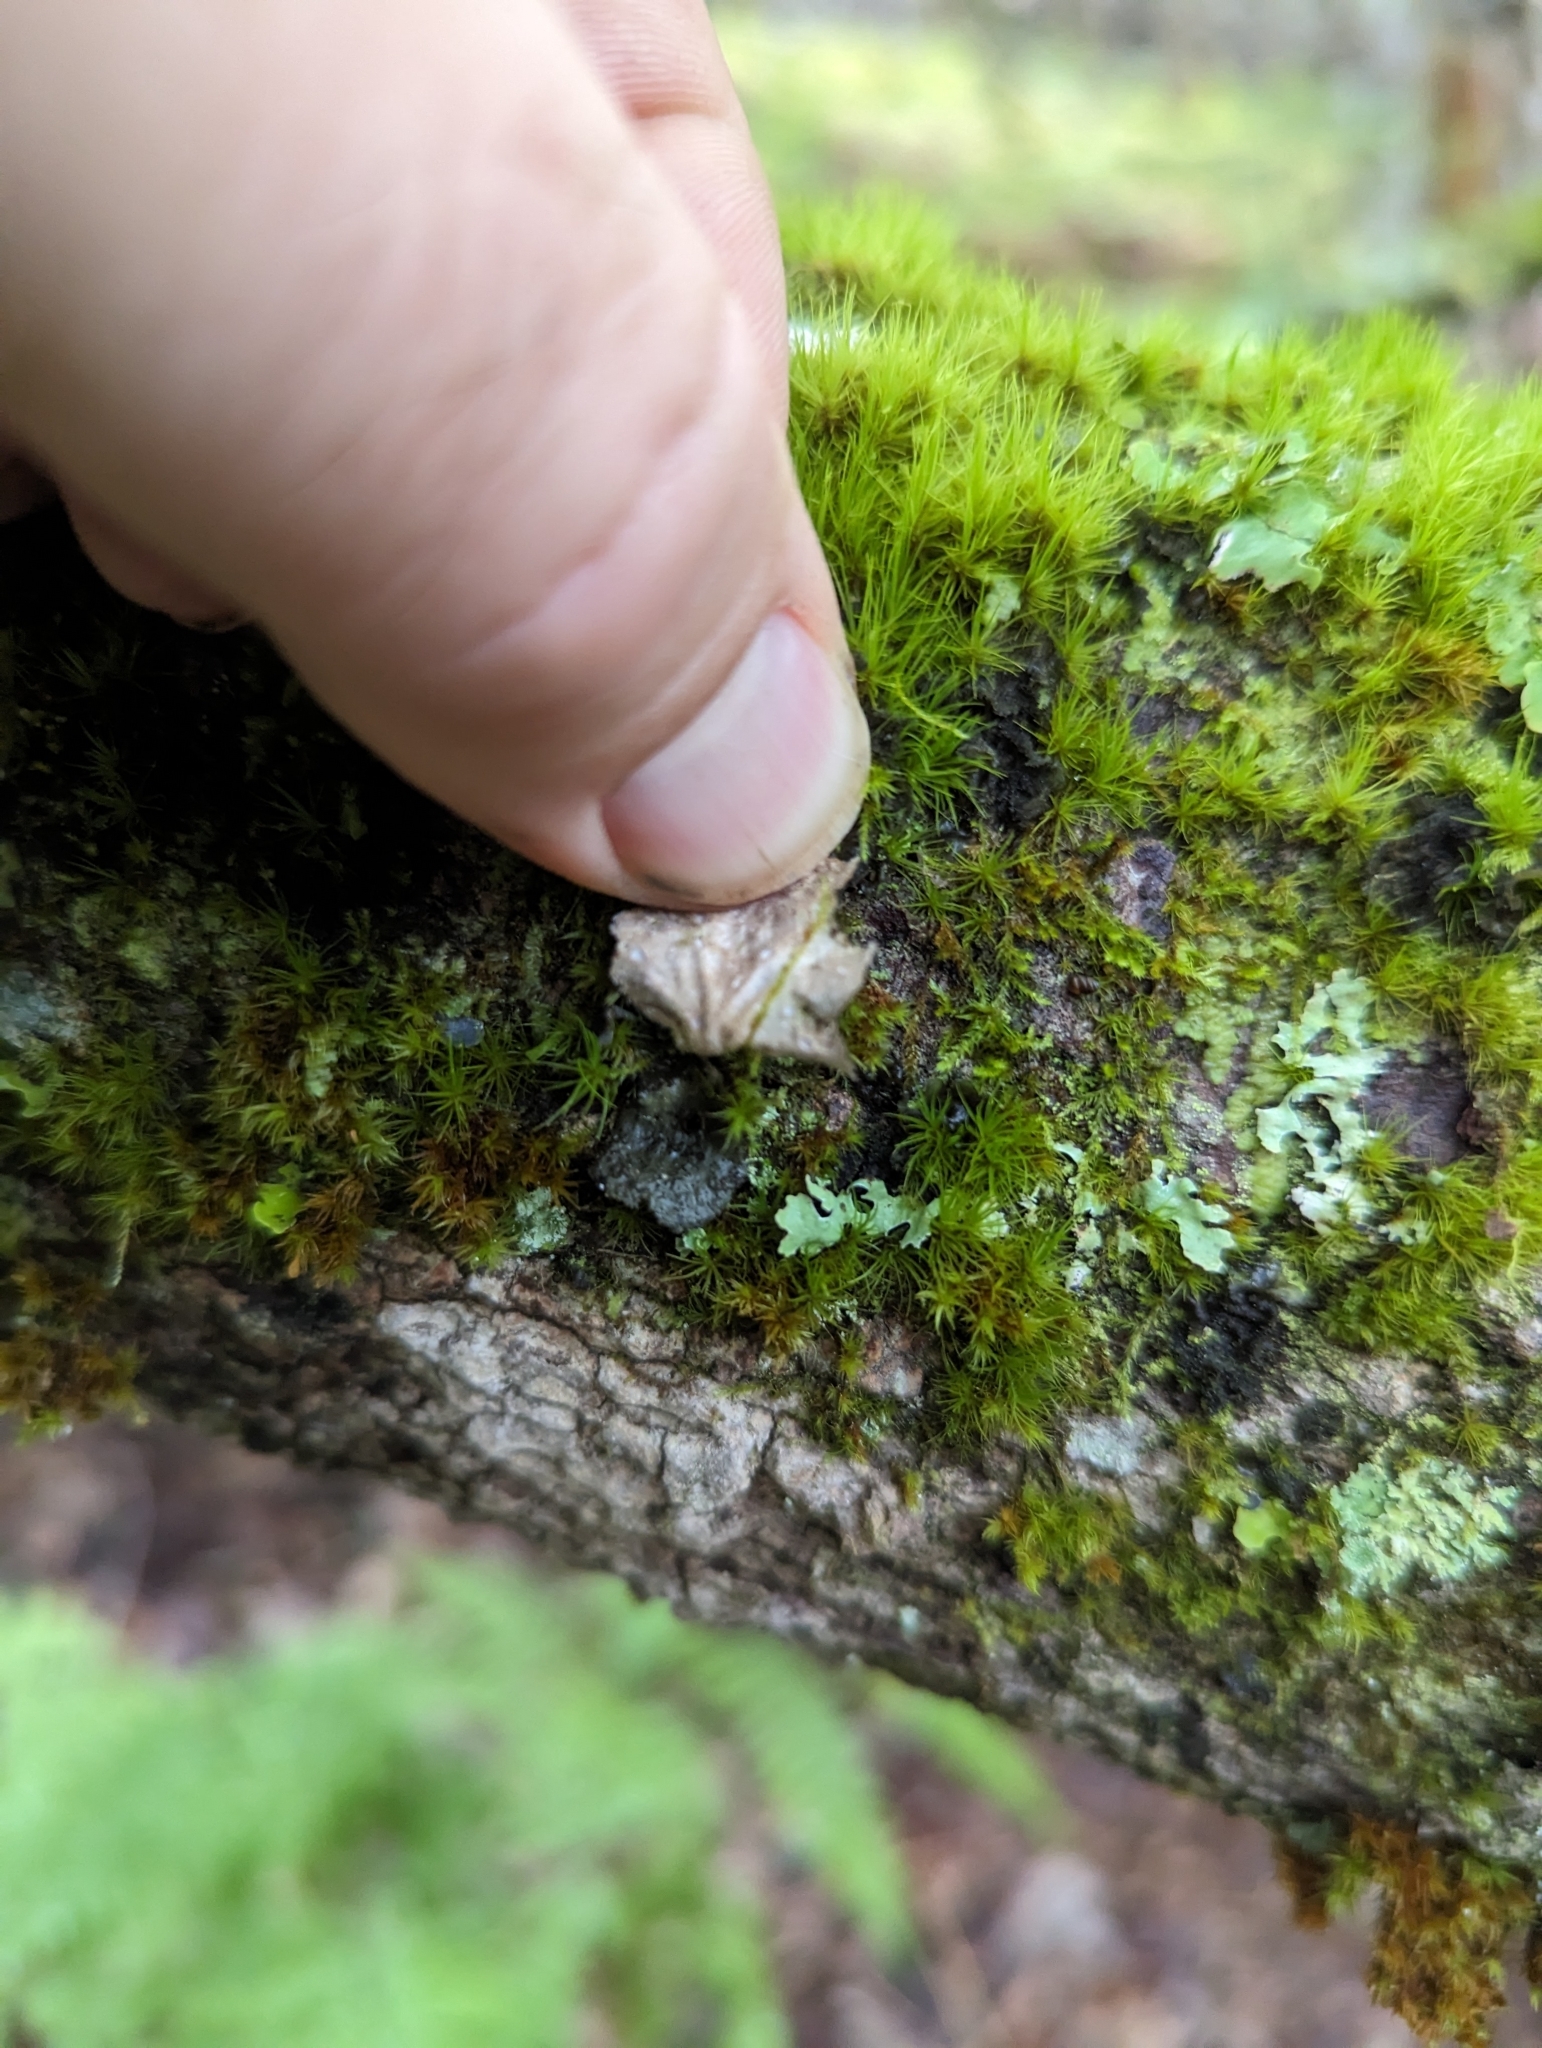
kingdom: Fungi
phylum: Ascomycota
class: Lecanoromycetes
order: Peltigerales
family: Lobariaceae
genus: Sticta
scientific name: Sticta fuliginosa
